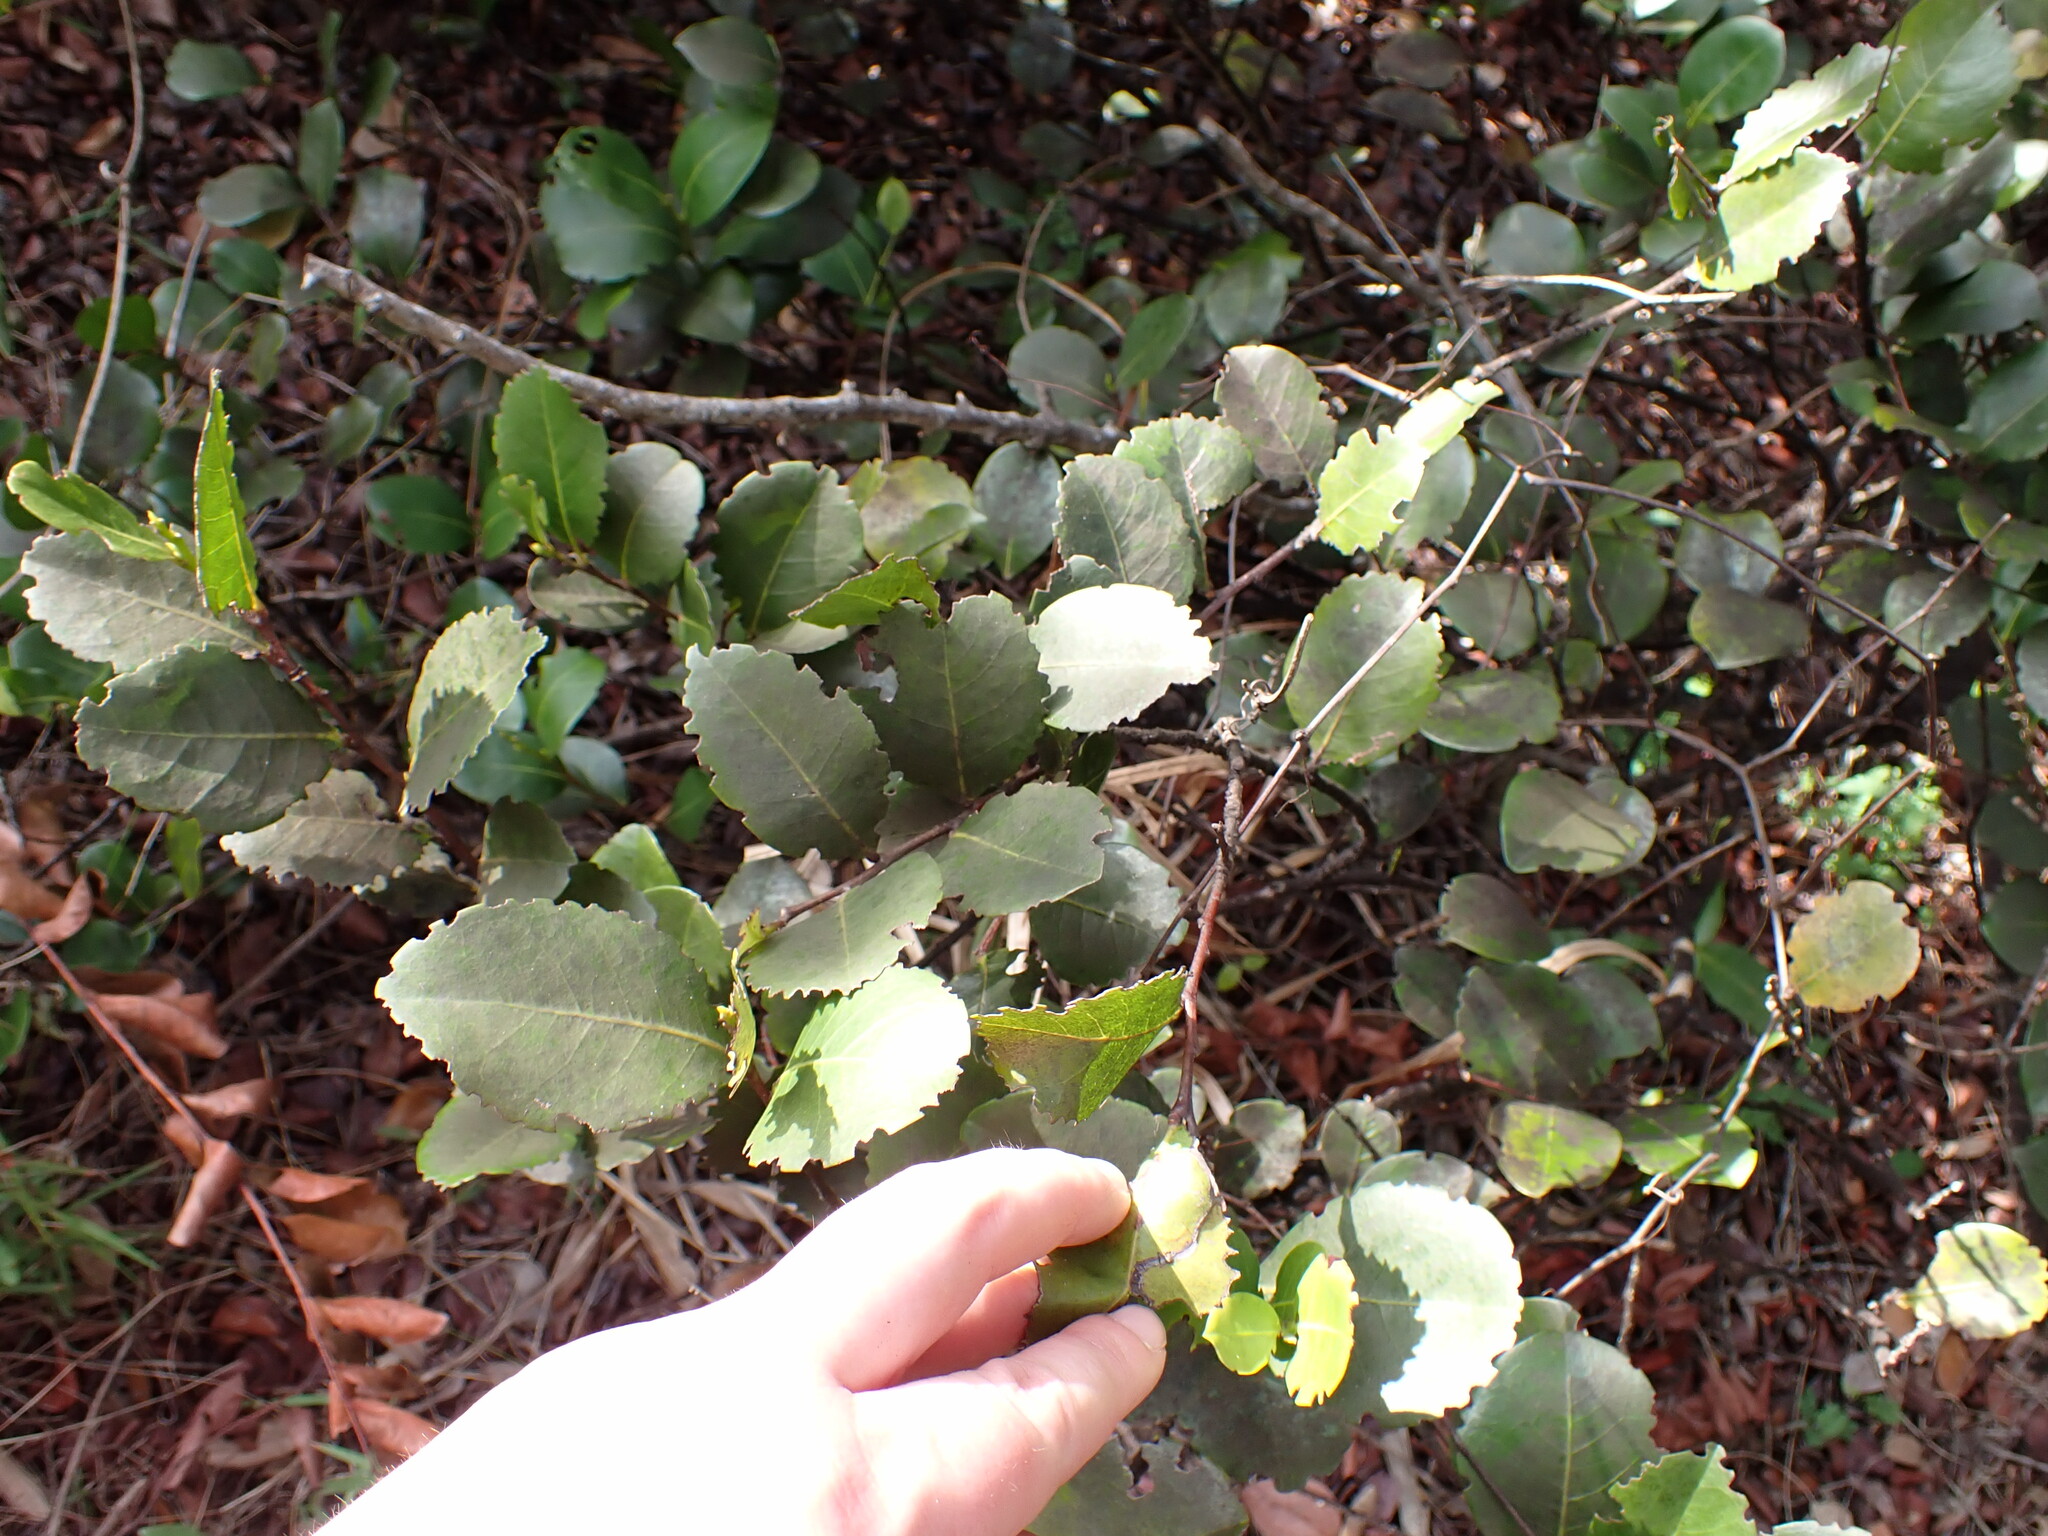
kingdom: Plantae
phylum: Tracheophyta
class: Magnoliopsida
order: Malpighiales
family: Chrysobalanaceae
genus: Chrysobalanus
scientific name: Chrysobalanus icaco
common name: Coco plum
